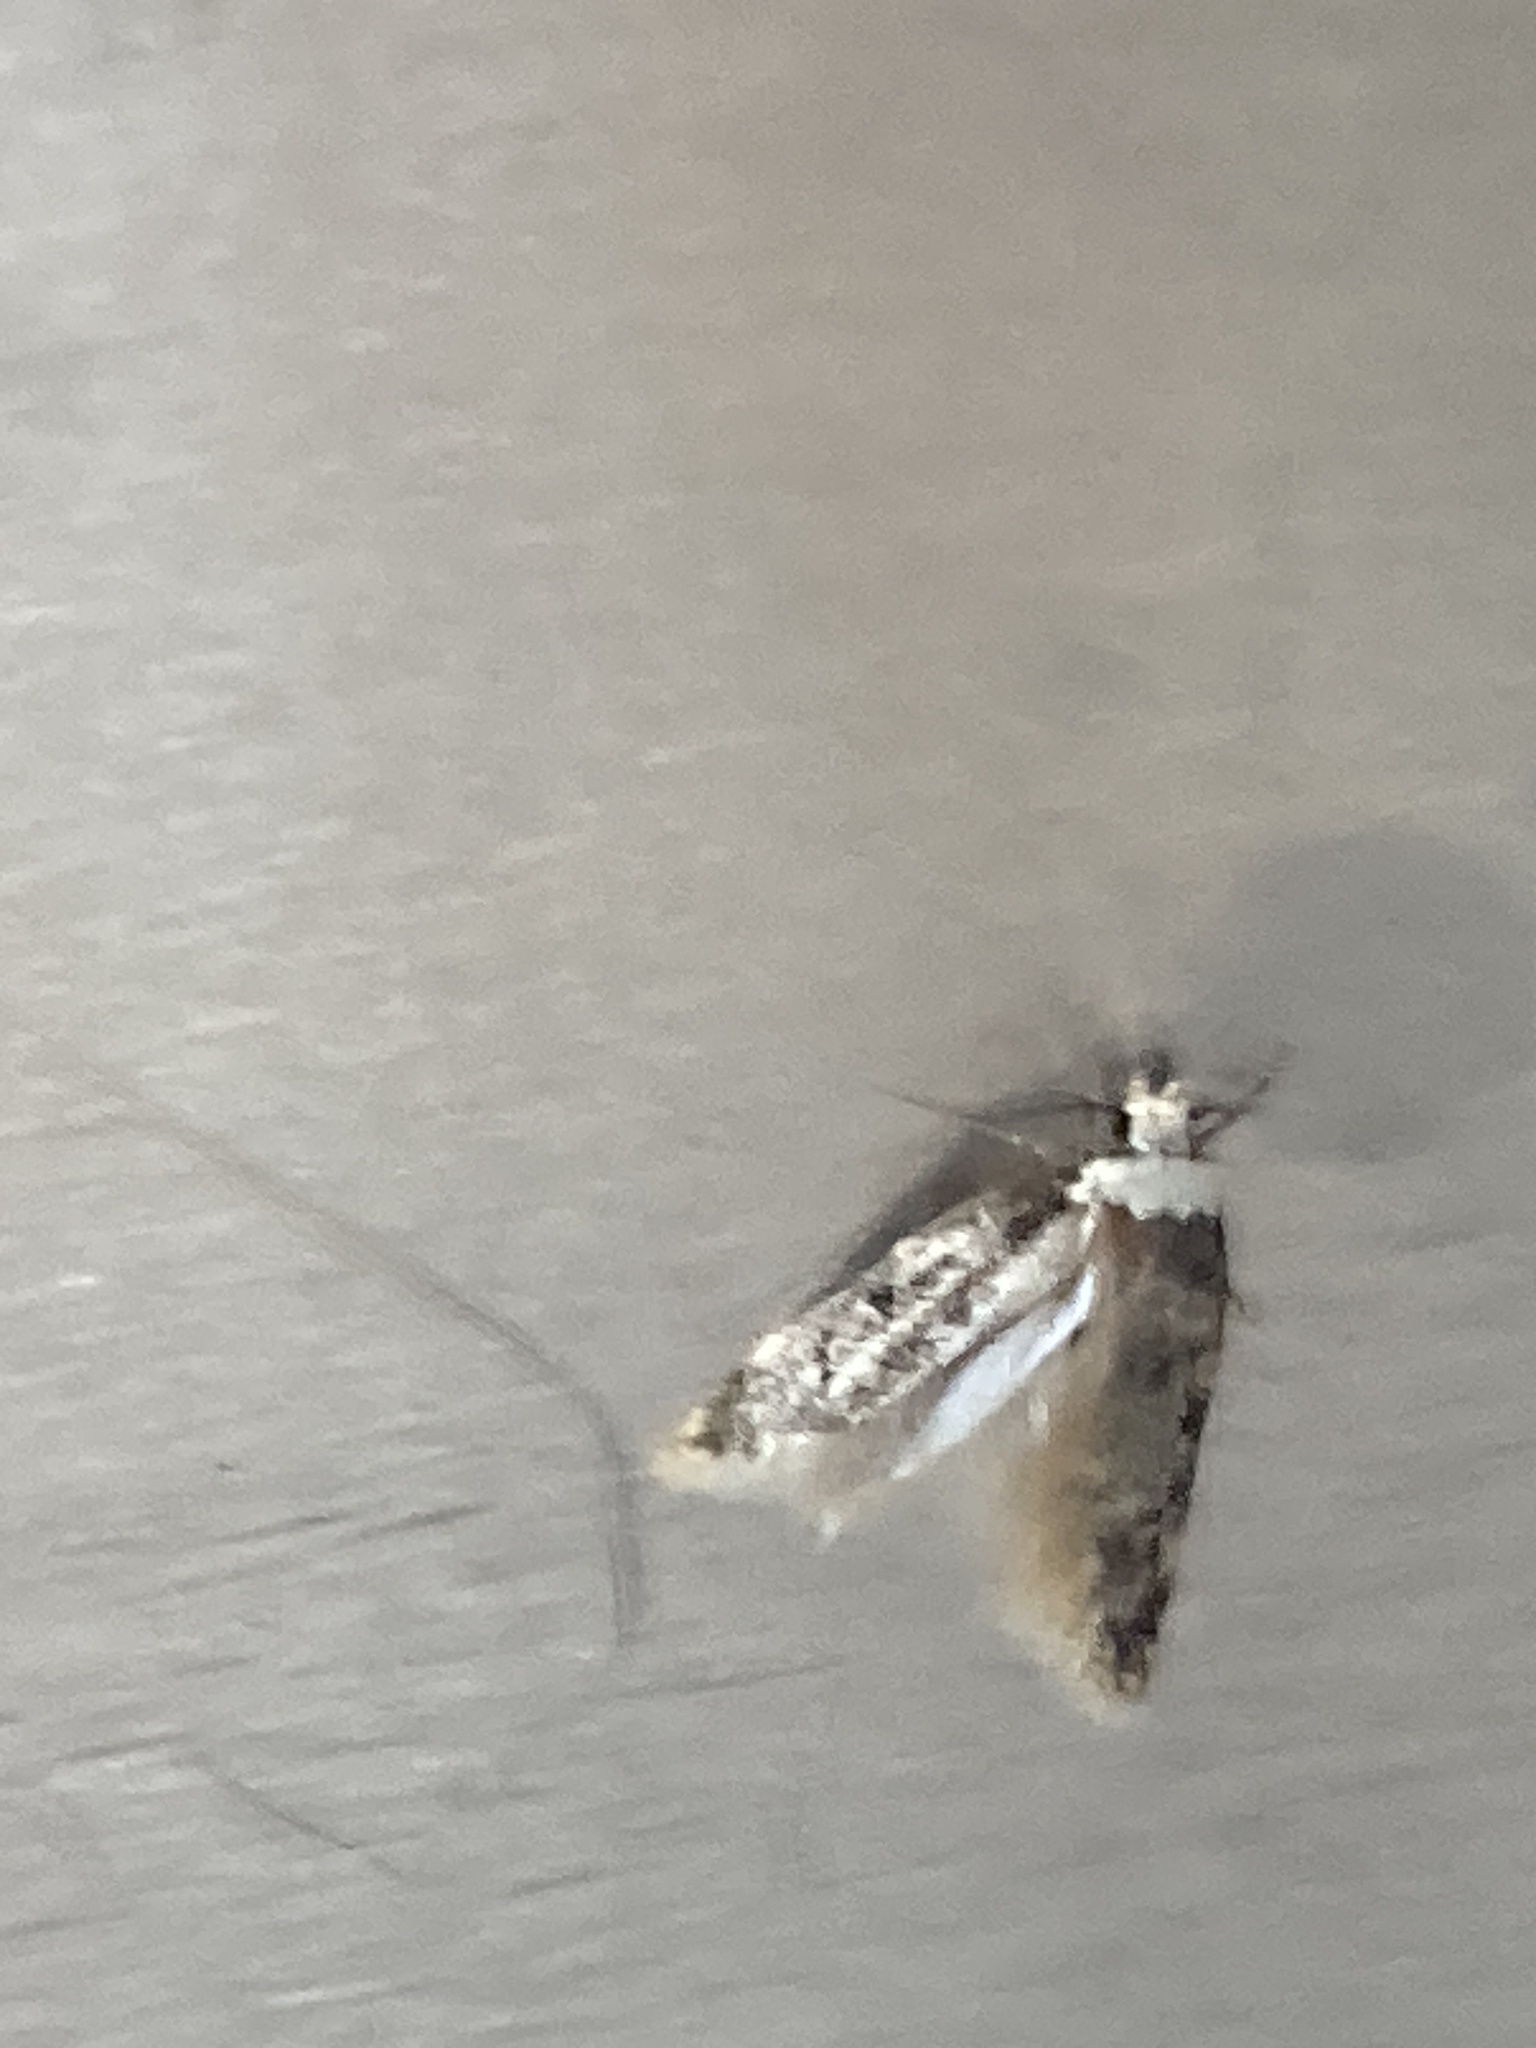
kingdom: Animalia
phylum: Arthropoda
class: Insecta
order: Lepidoptera
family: Oecophoridae
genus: Endrosis
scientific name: Endrosis sarcitrella
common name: White-shouldered house moth
